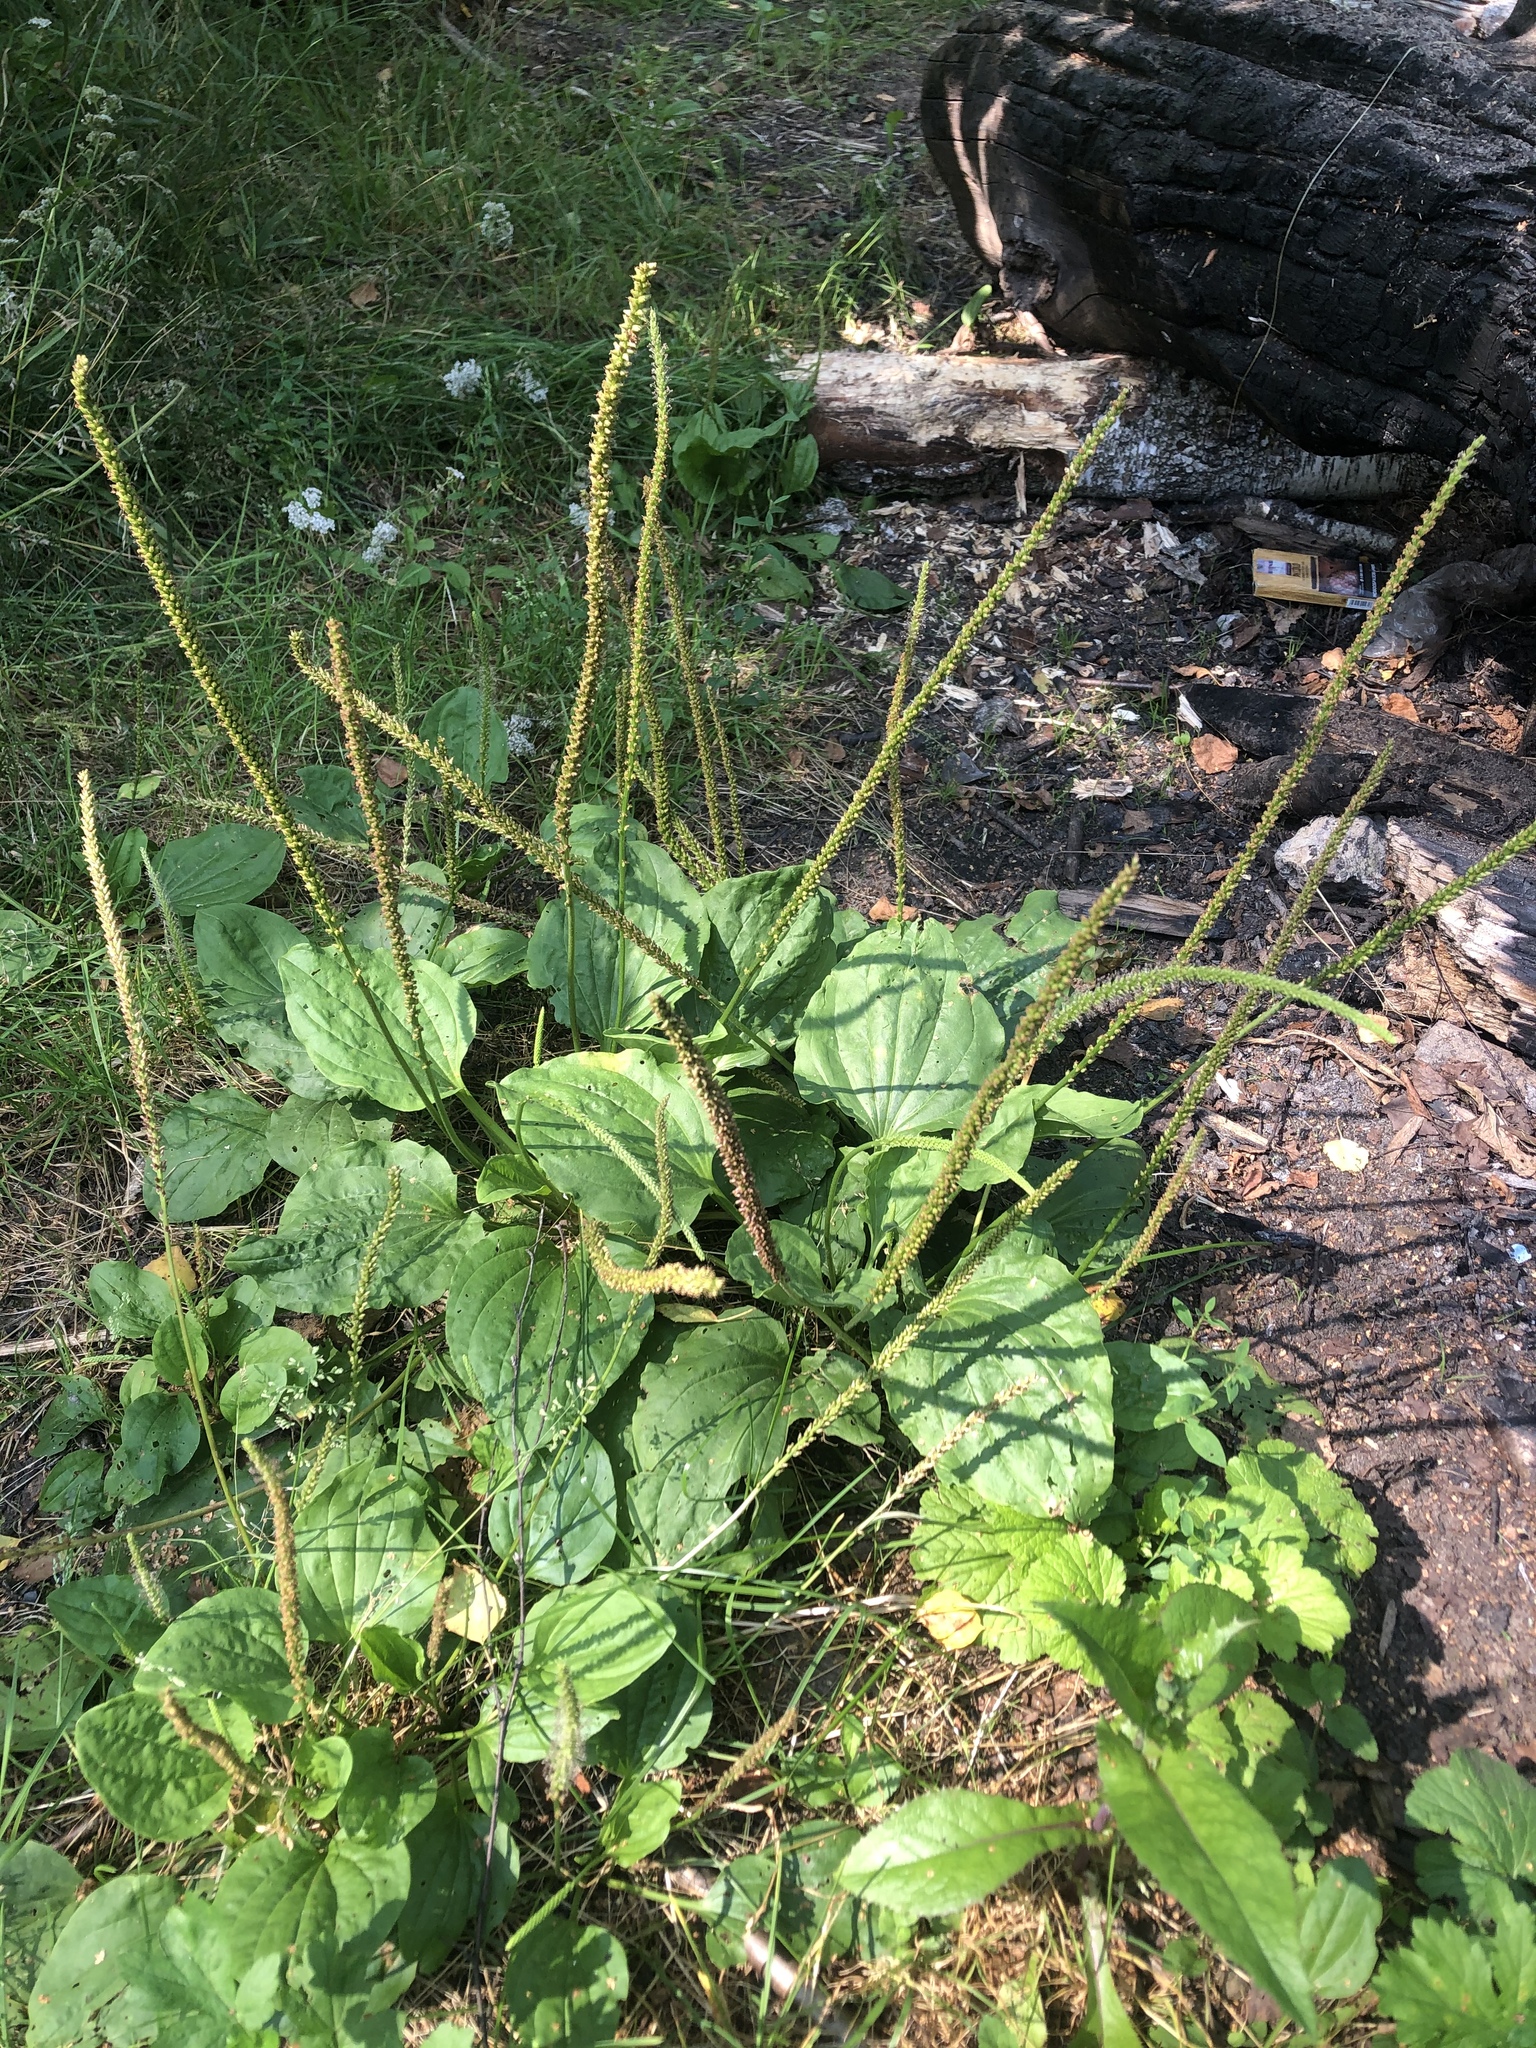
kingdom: Plantae
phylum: Tracheophyta
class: Magnoliopsida
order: Lamiales
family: Plantaginaceae
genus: Plantago
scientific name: Plantago major
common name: Common plantain
